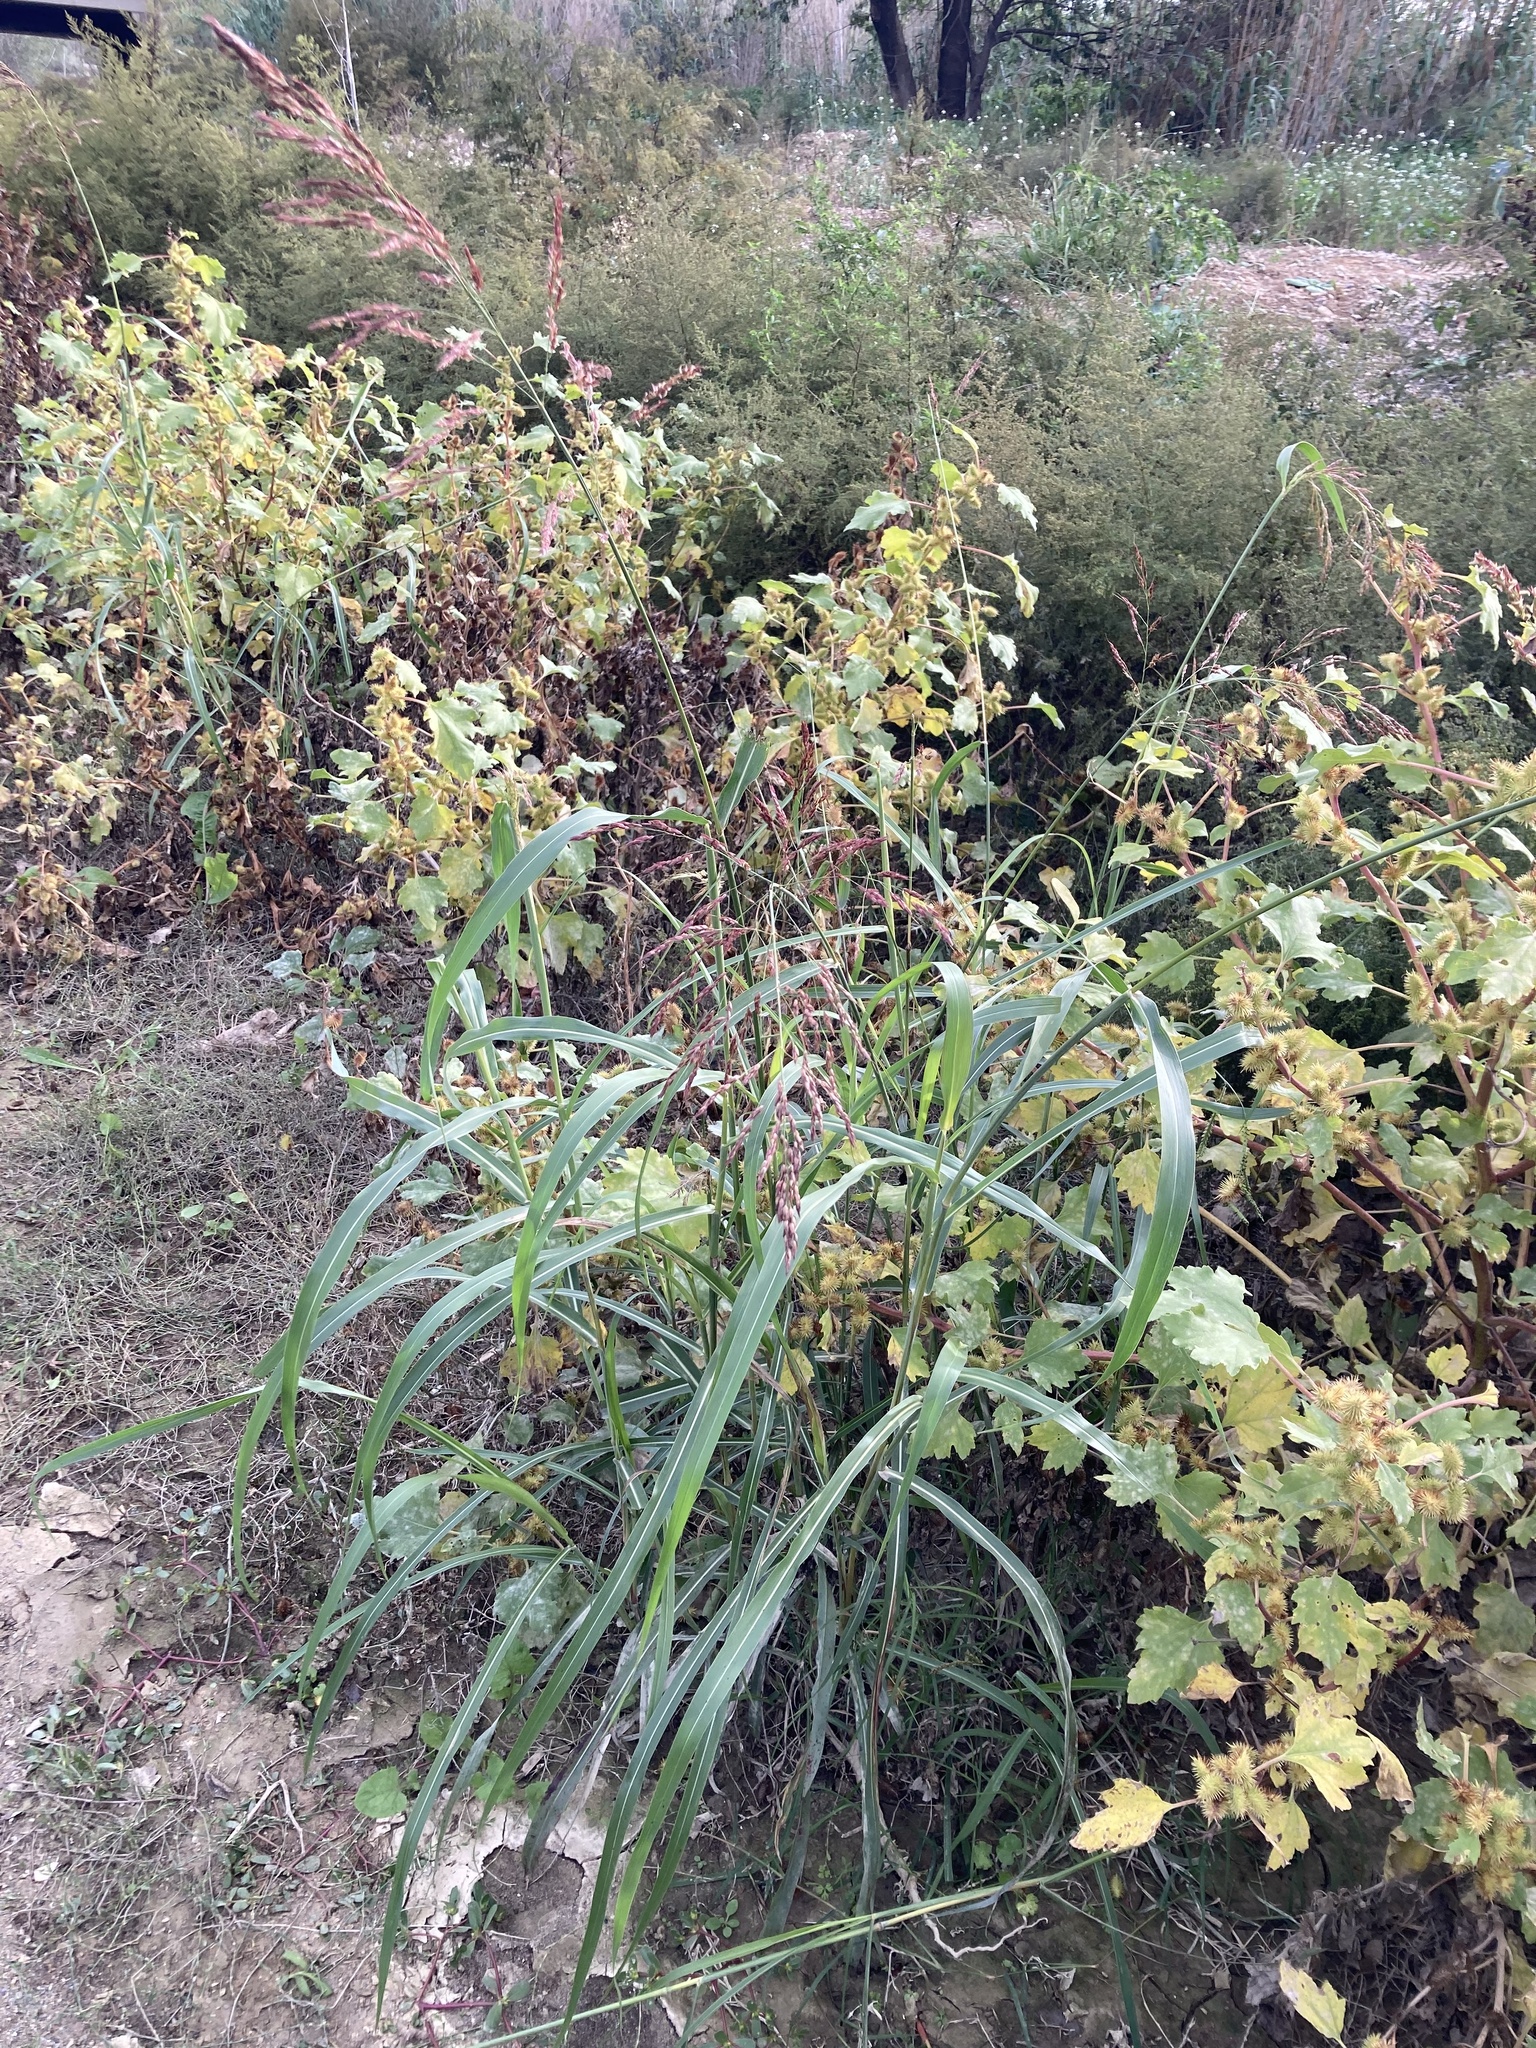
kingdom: Plantae
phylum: Tracheophyta
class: Liliopsida
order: Poales
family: Poaceae
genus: Sorghum
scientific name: Sorghum halepense
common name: Johnson-grass
